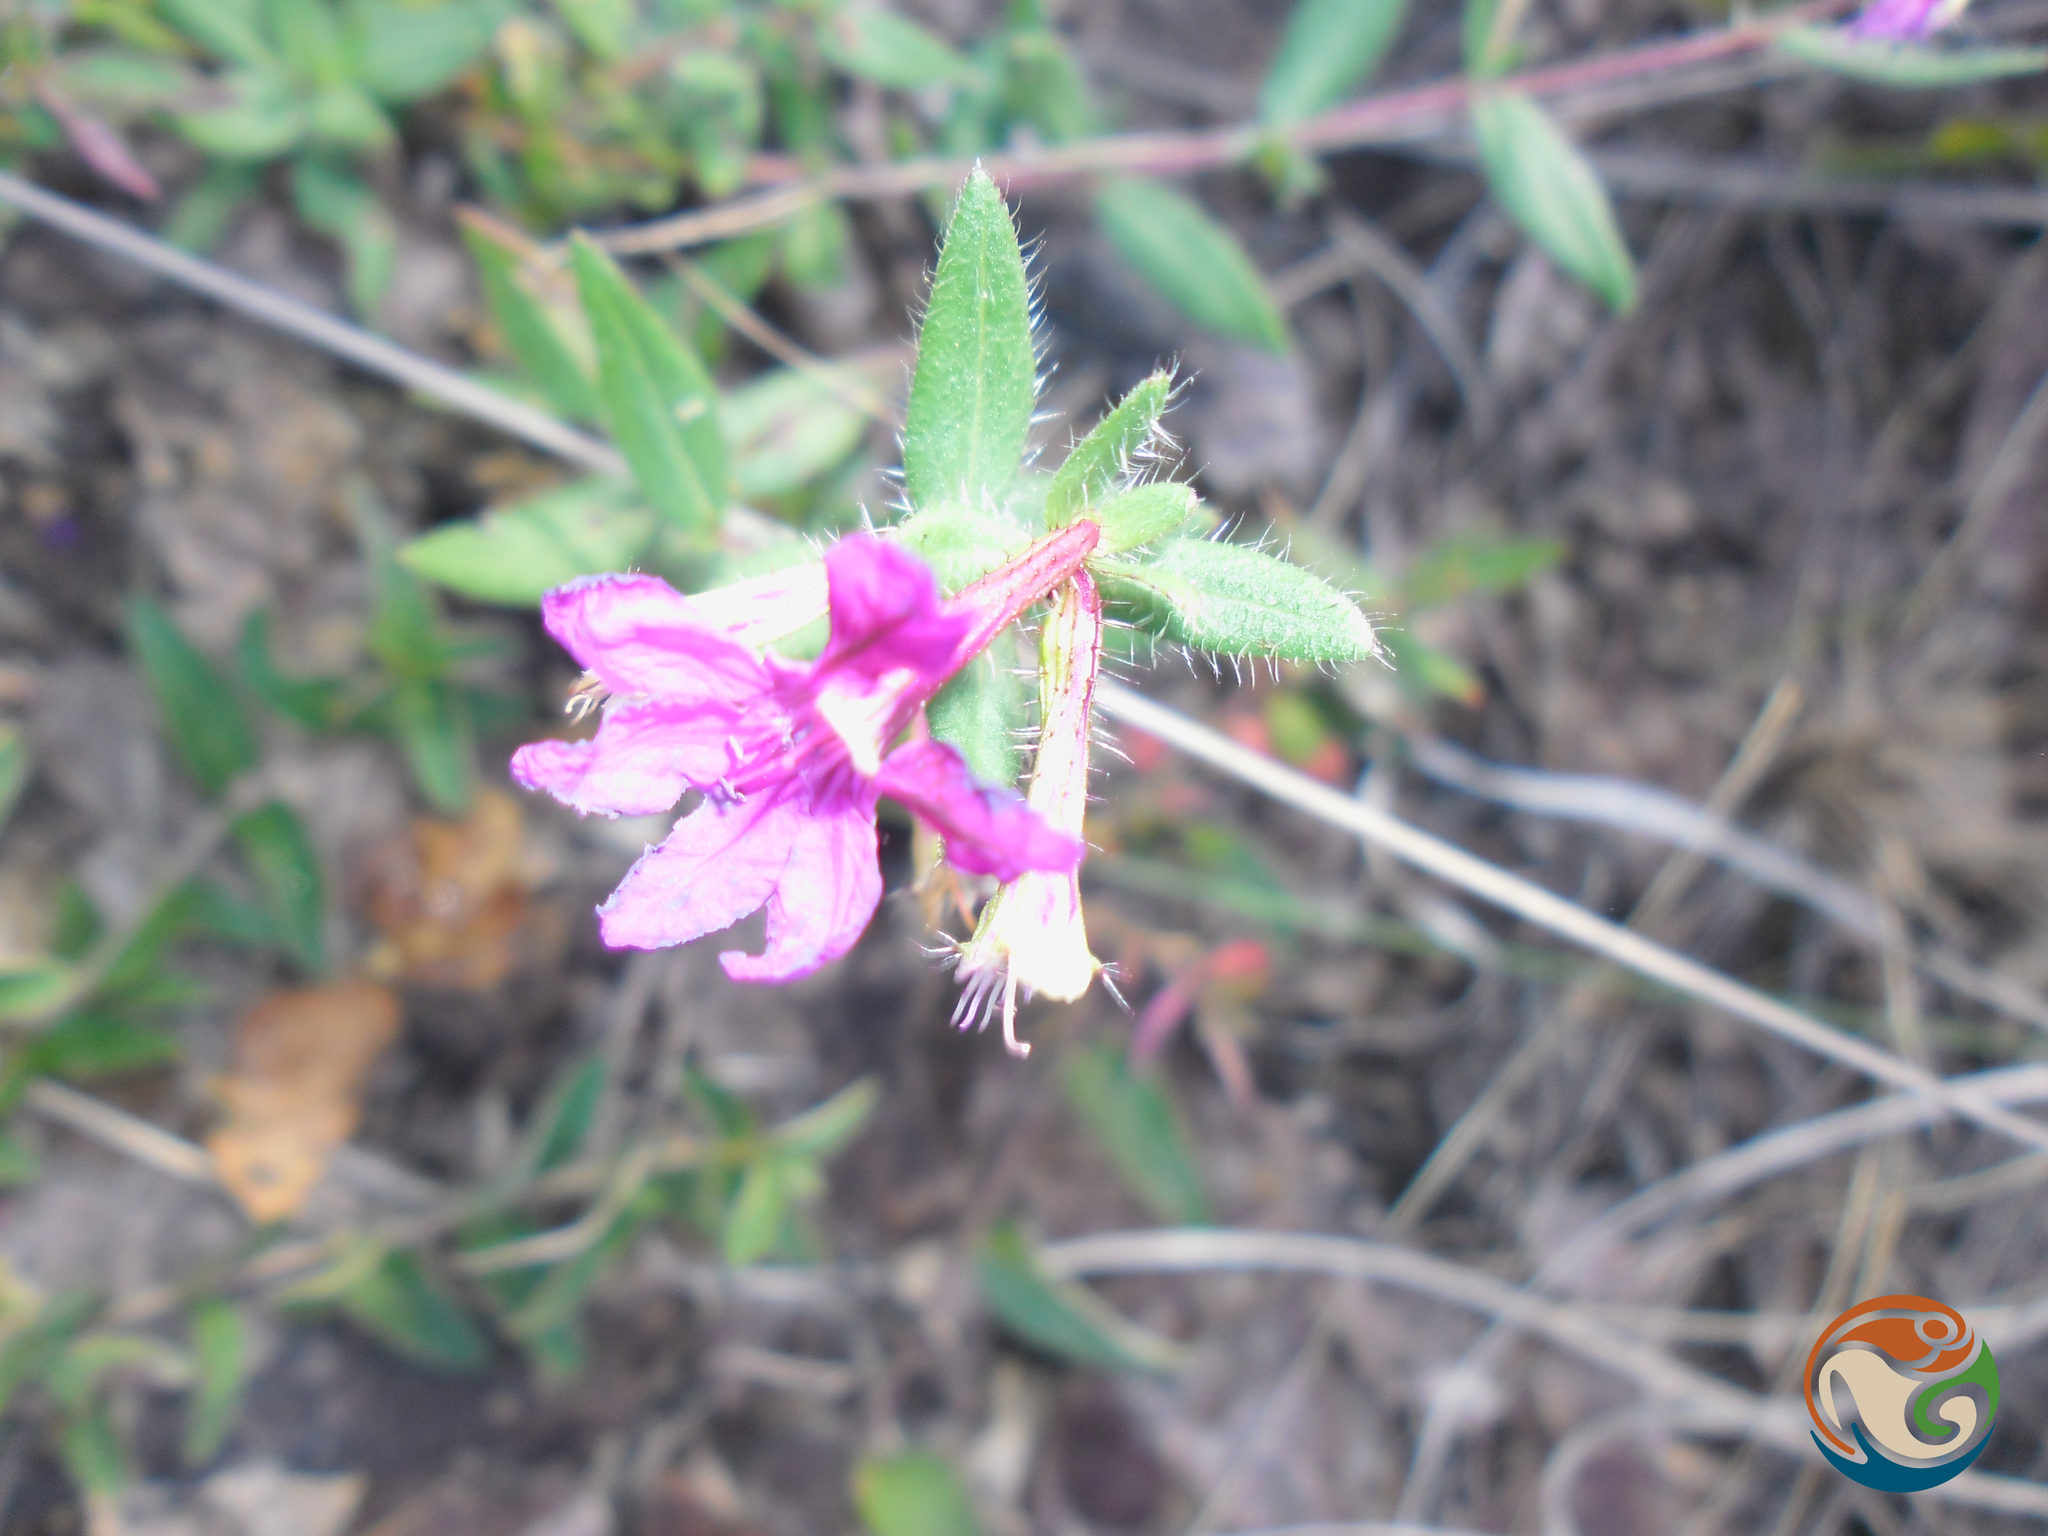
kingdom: Plantae
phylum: Tracheophyta
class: Magnoliopsida
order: Myrtales
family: Lythraceae
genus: Cuphea
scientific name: Cuphea aequipetala
